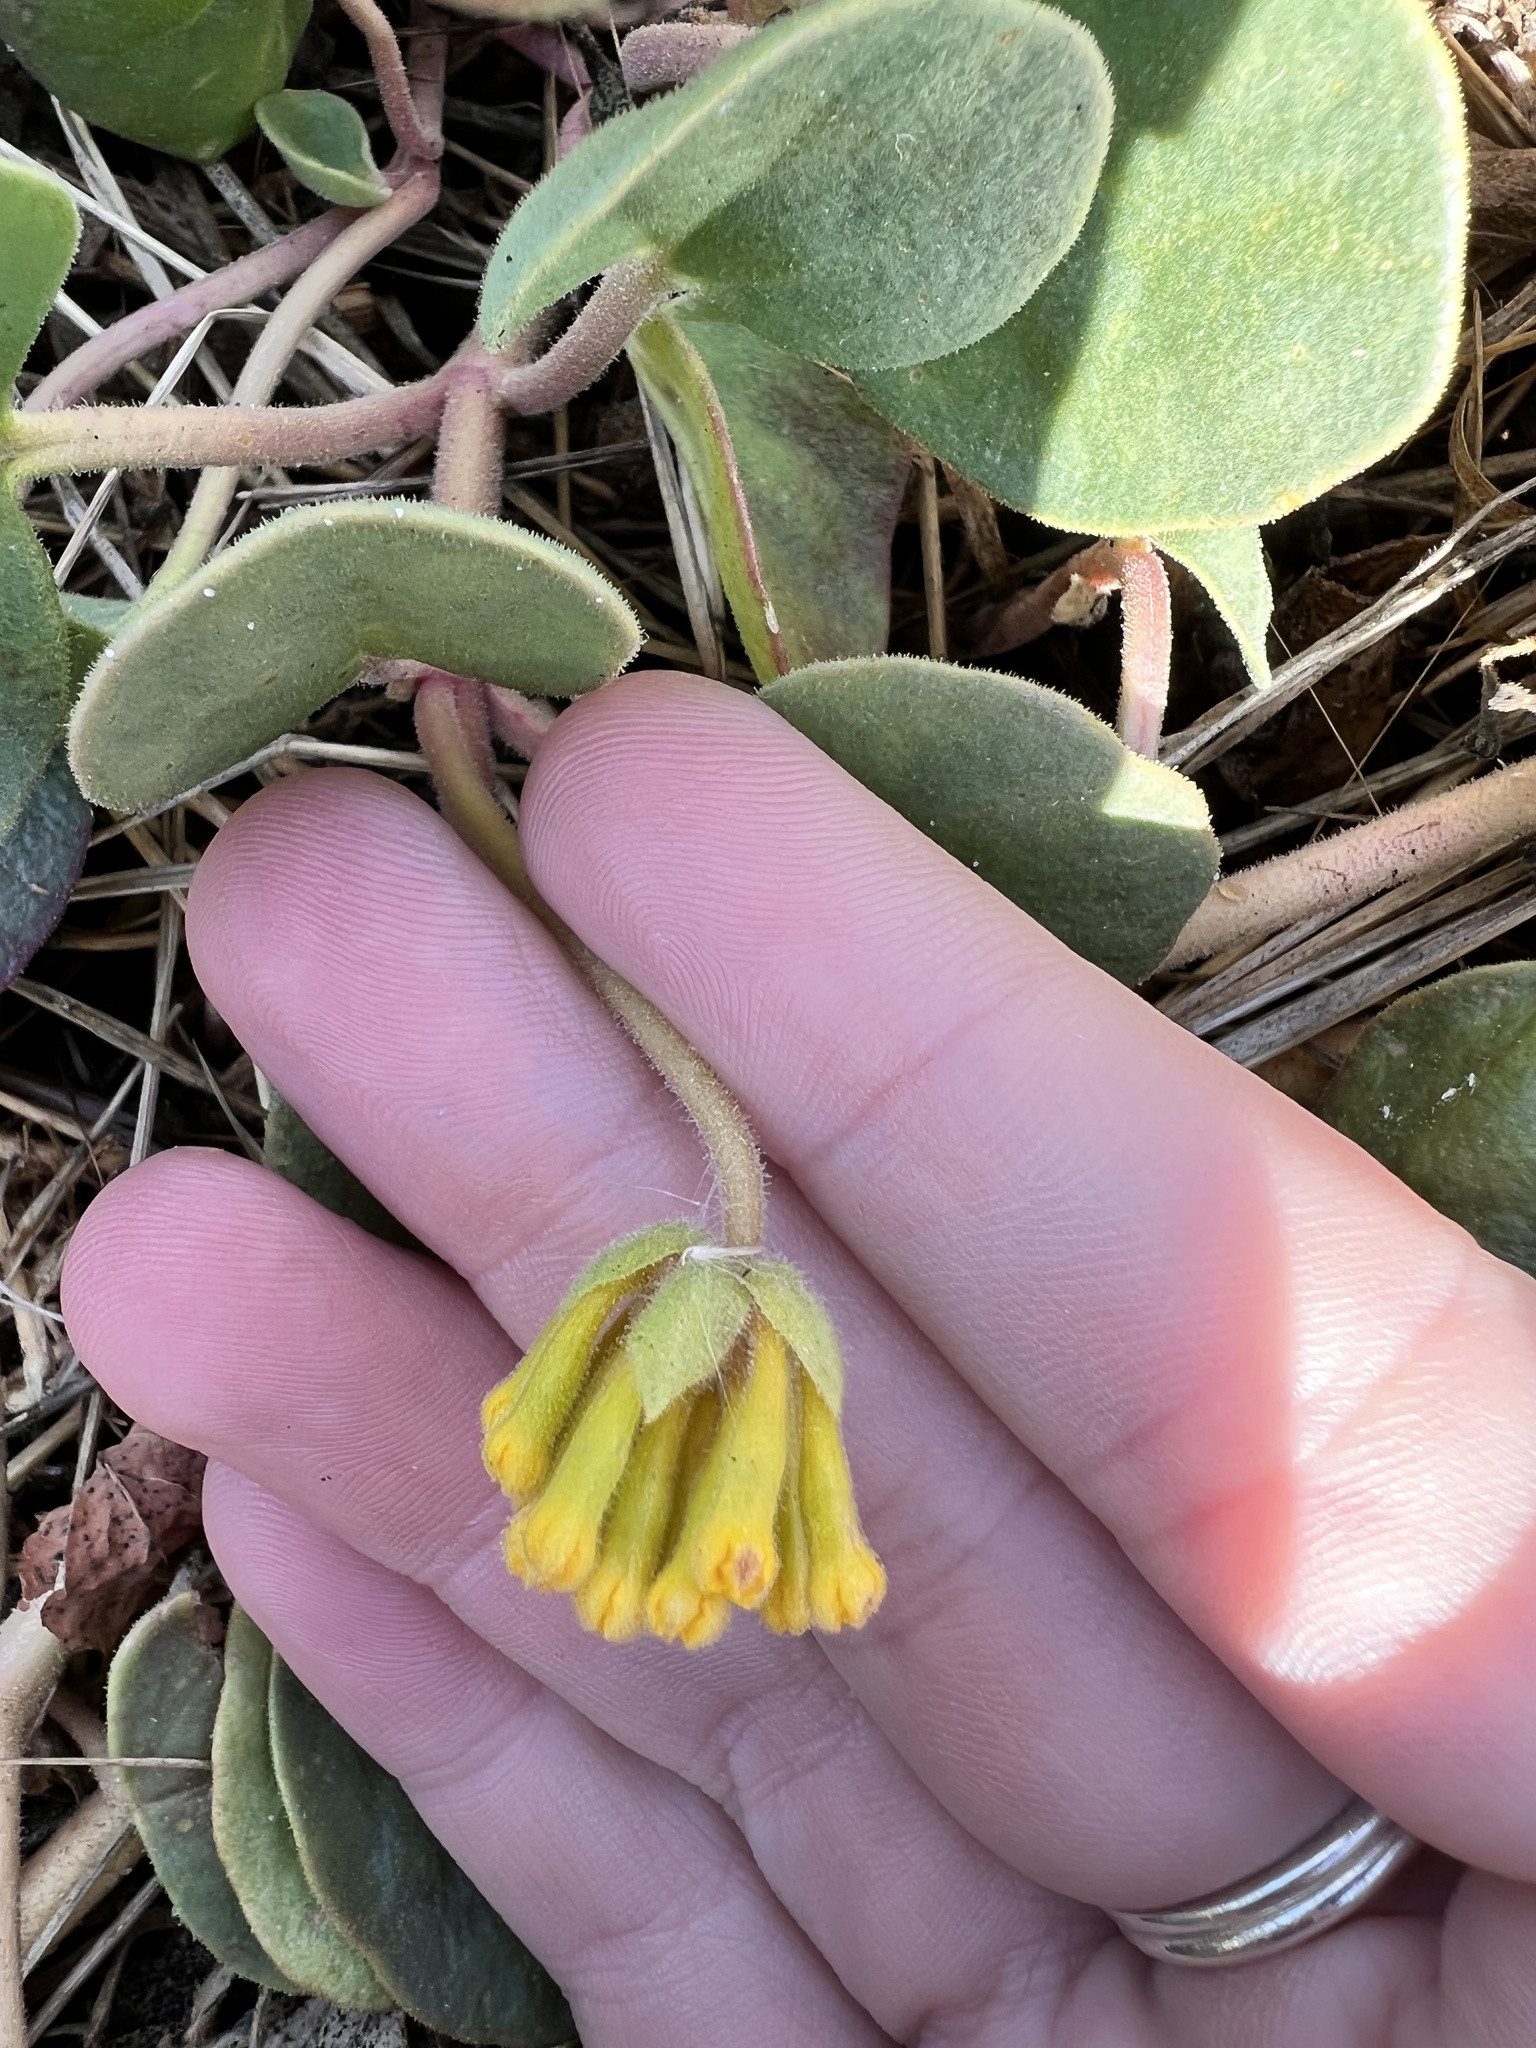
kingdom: Plantae
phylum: Tracheophyta
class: Magnoliopsida
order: Caryophyllales
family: Nyctaginaceae
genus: Abronia
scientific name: Abronia latifolia
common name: Yellow sand-verbena
